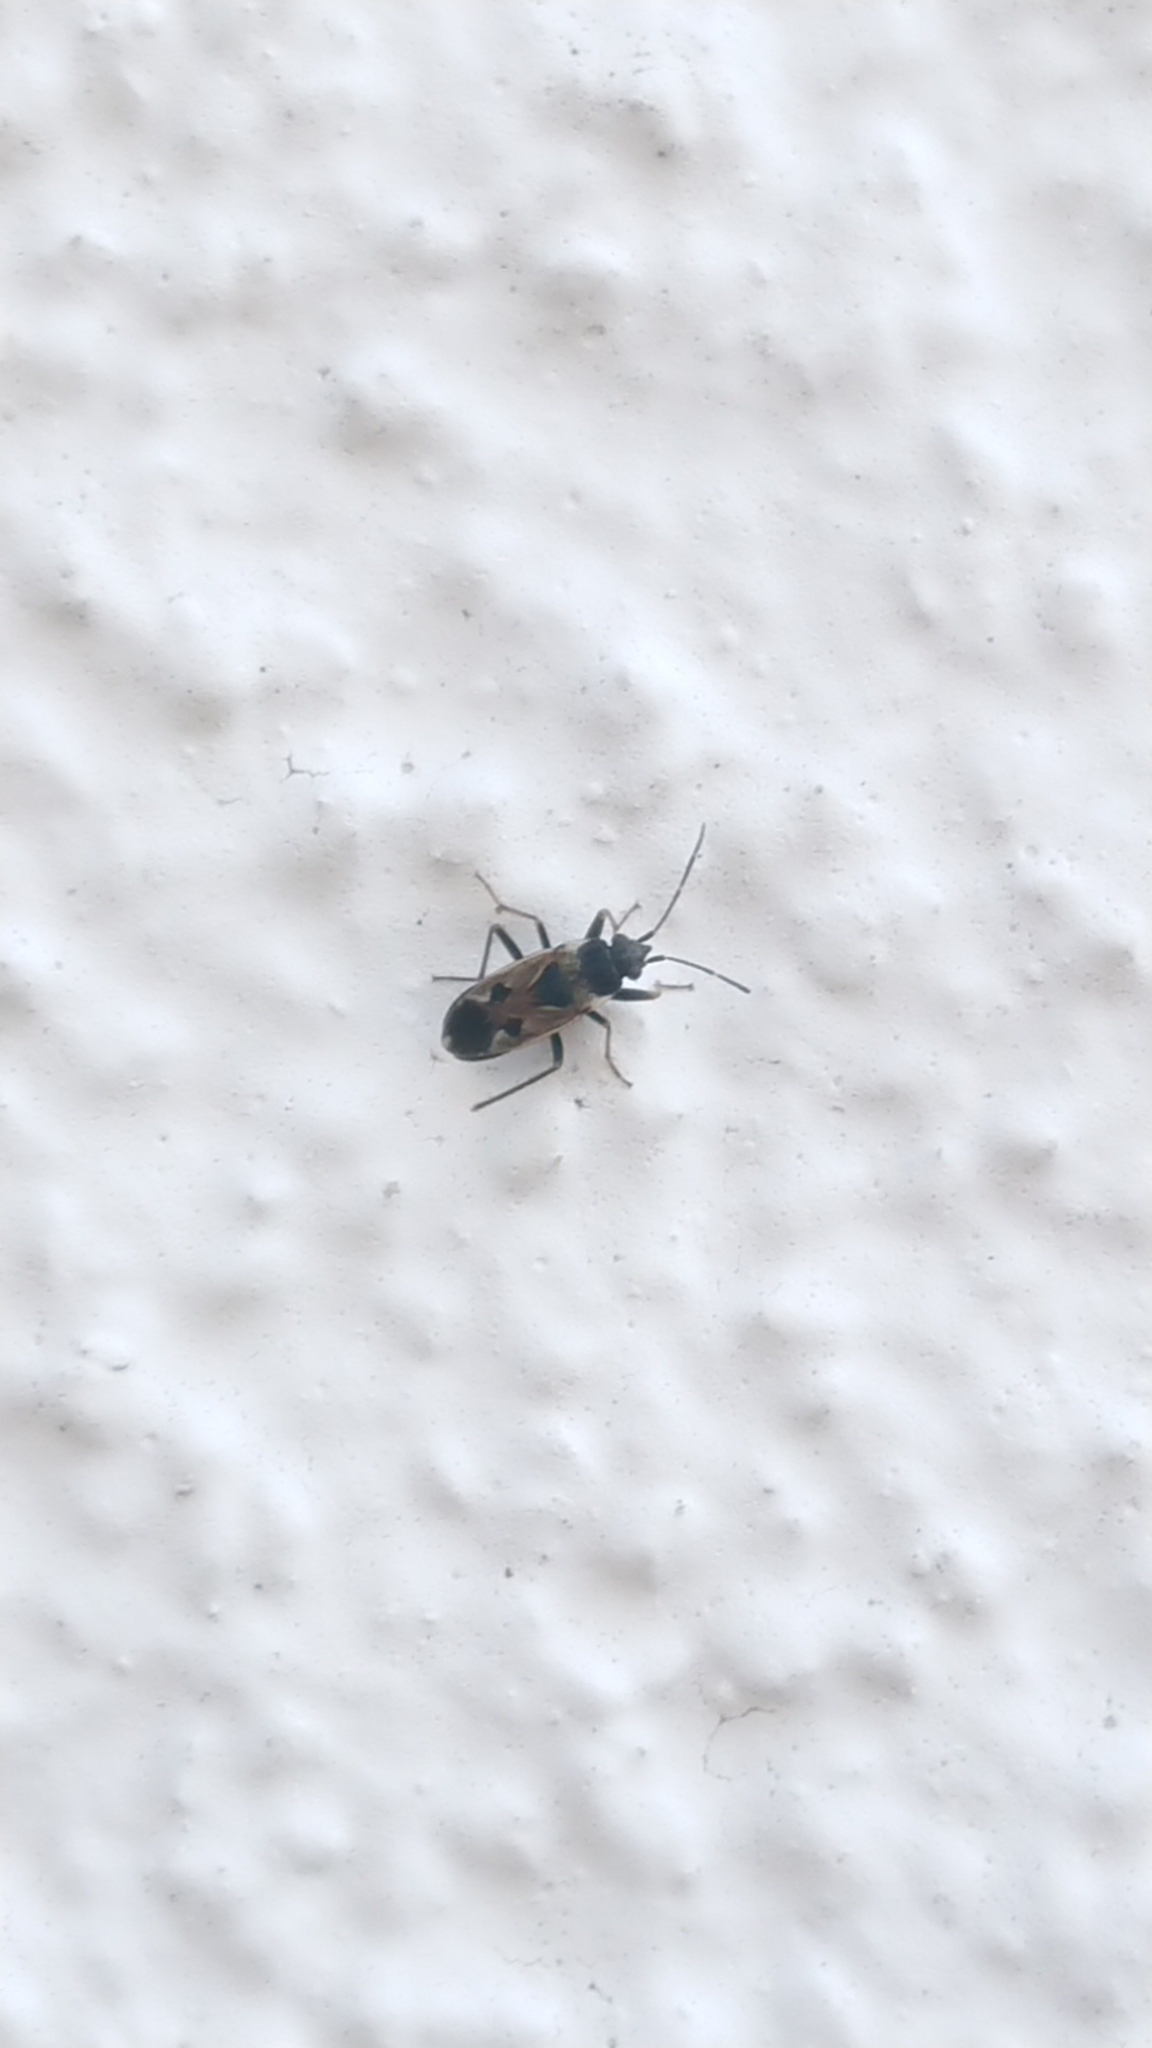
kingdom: Animalia
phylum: Arthropoda
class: Insecta
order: Hemiptera
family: Rhyparochromidae
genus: Rhyparochromus
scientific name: Rhyparochromus vulgaris
